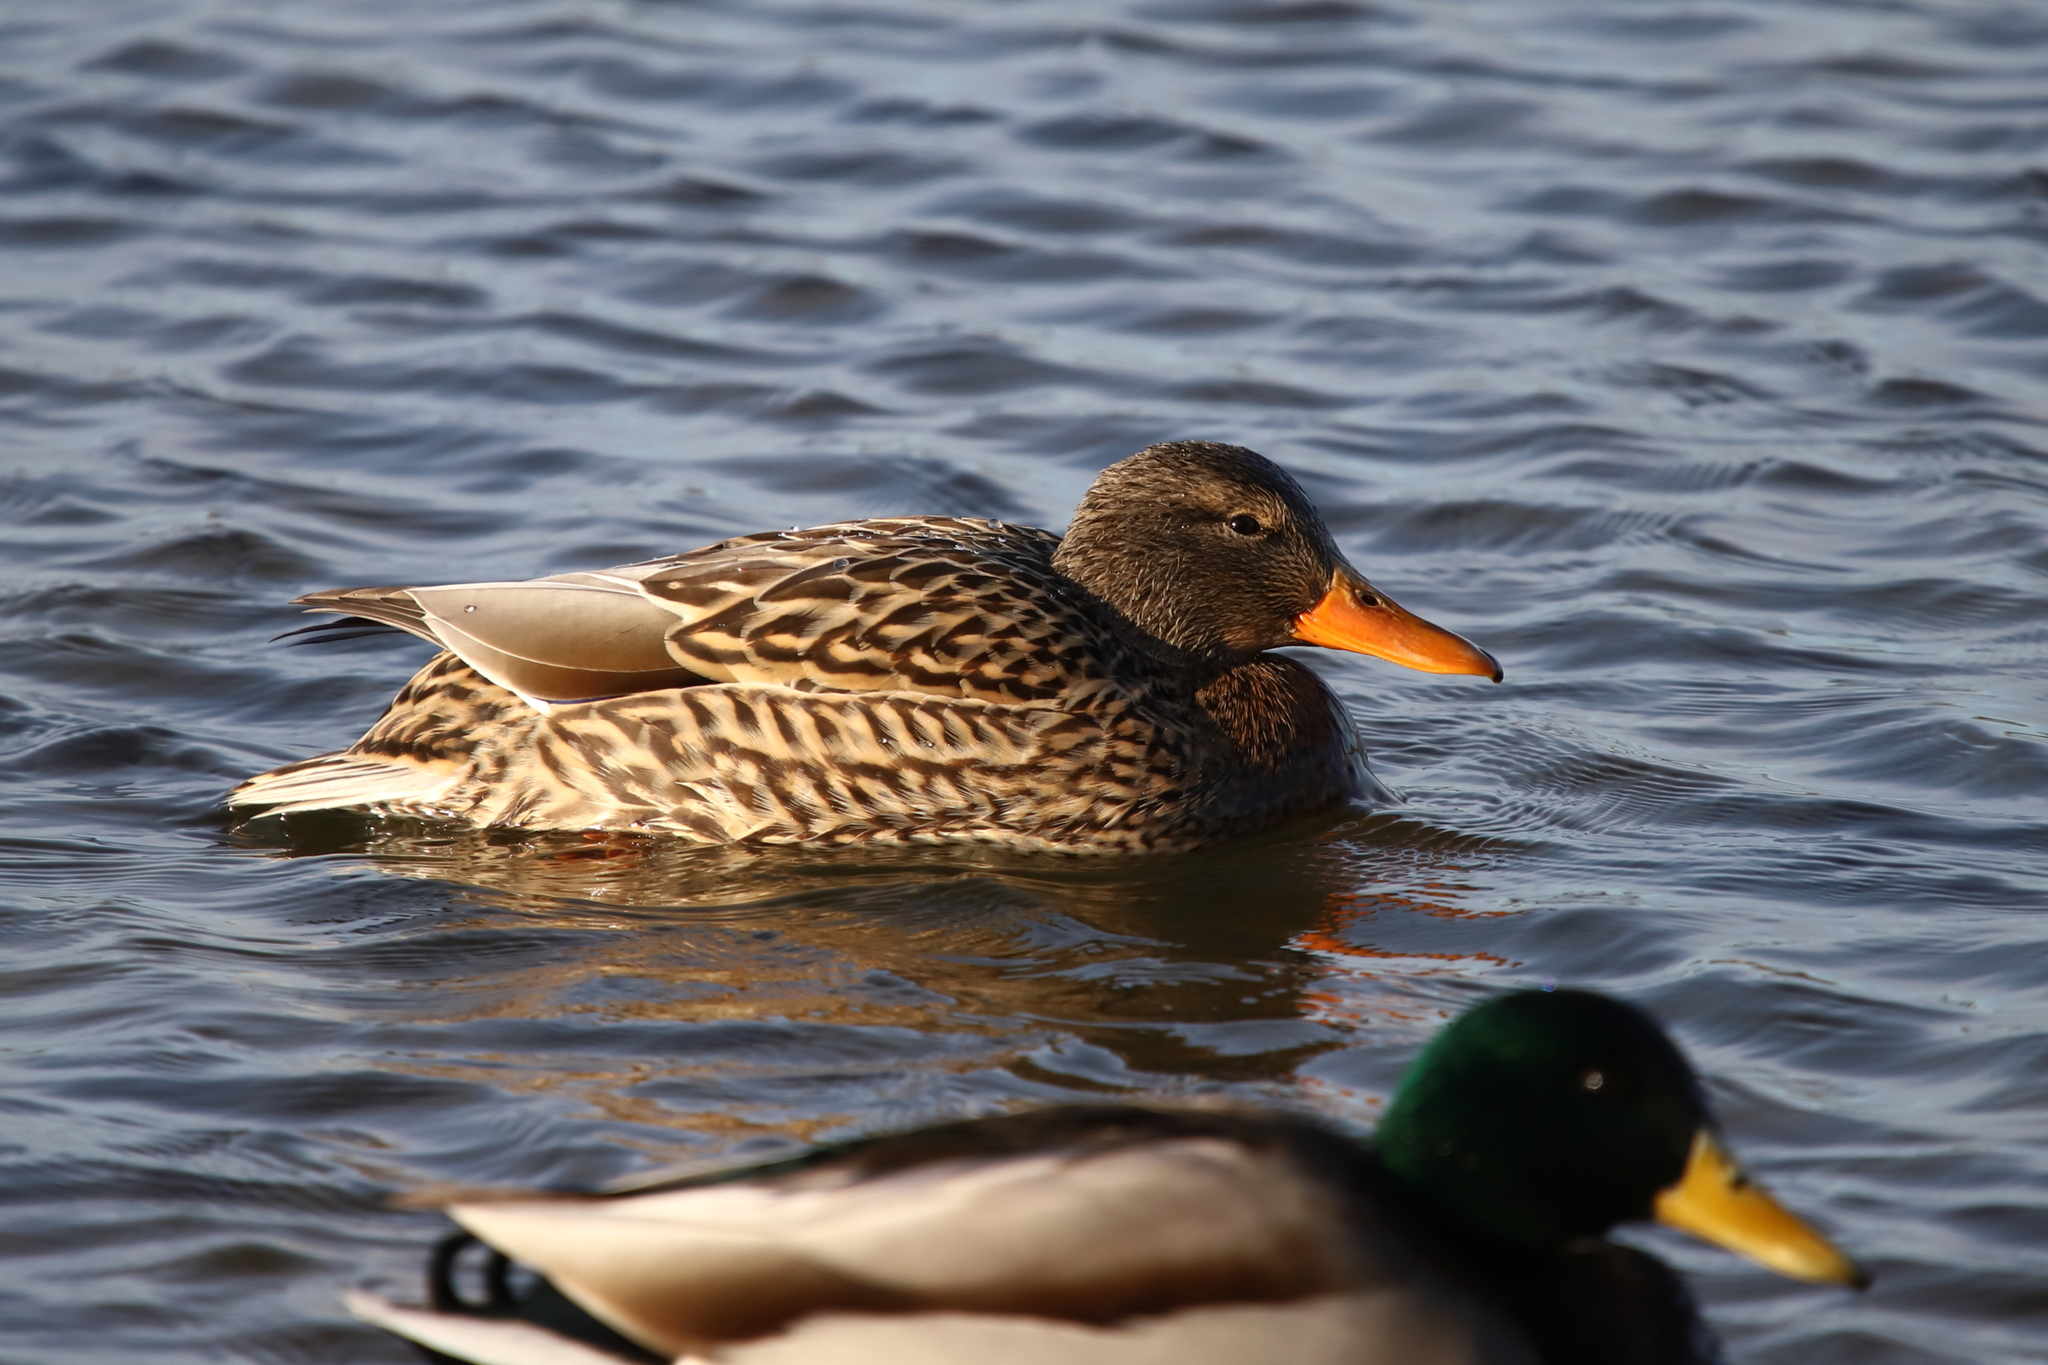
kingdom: Animalia
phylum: Chordata
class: Aves
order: Anseriformes
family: Anatidae
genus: Anas
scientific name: Anas platyrhynchos
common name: Mallard
